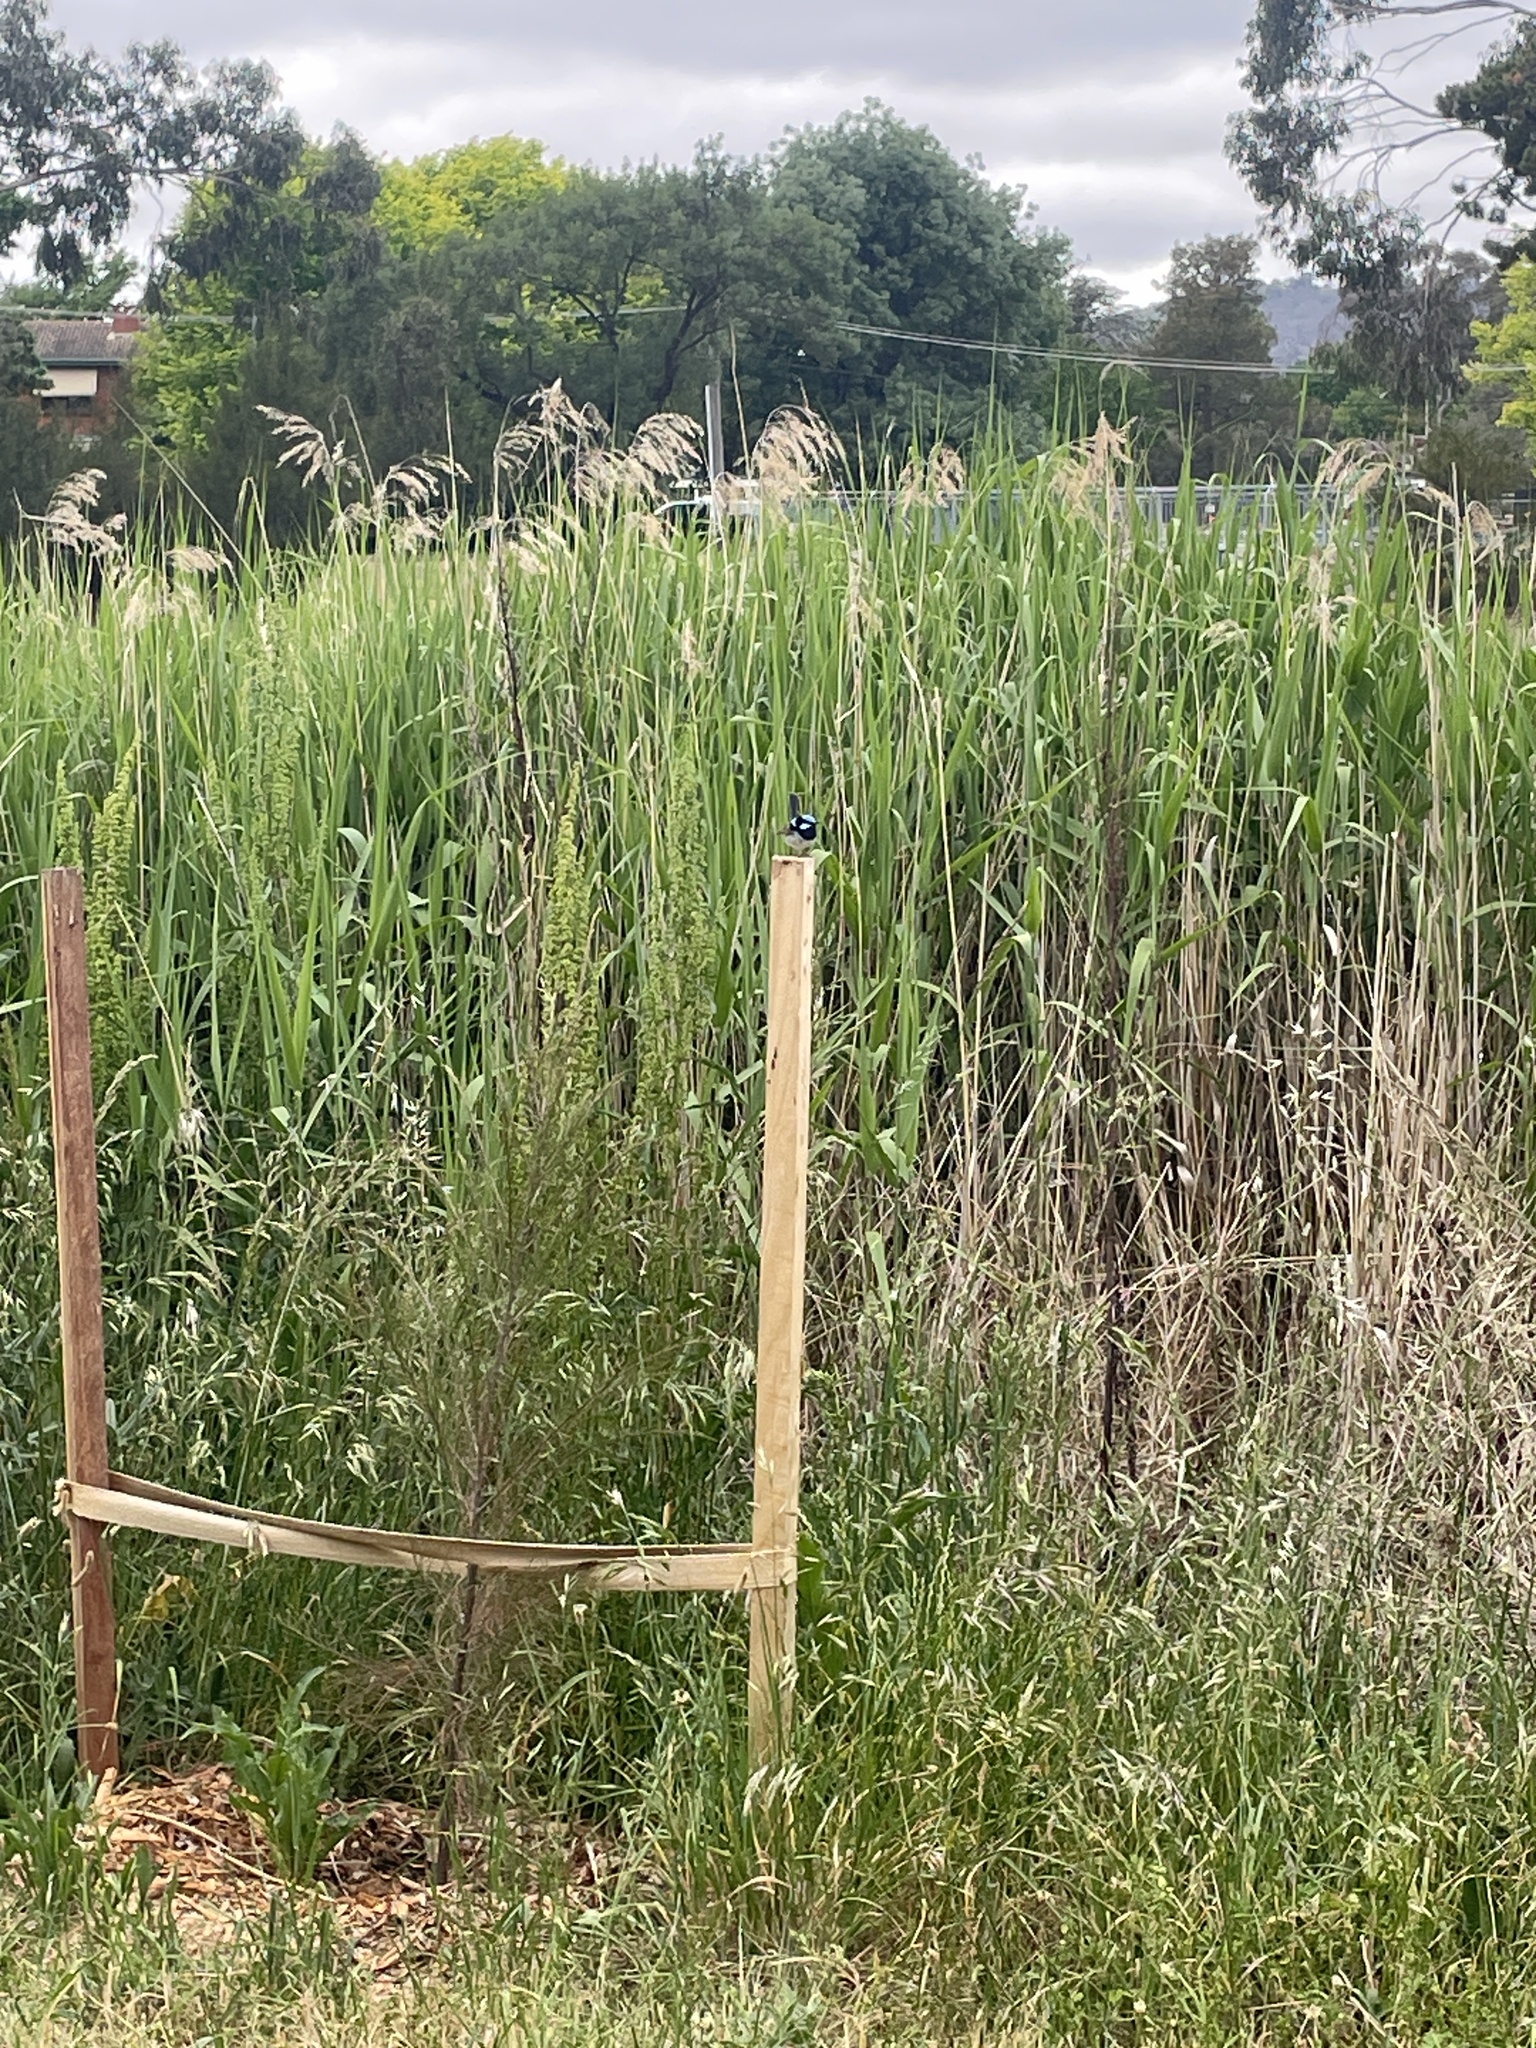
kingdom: Animalia
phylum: Chordata
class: Aves
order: Passeriformes
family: Maluridae
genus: Malurus
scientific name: Malurus cyaneus
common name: Superb fairywren
